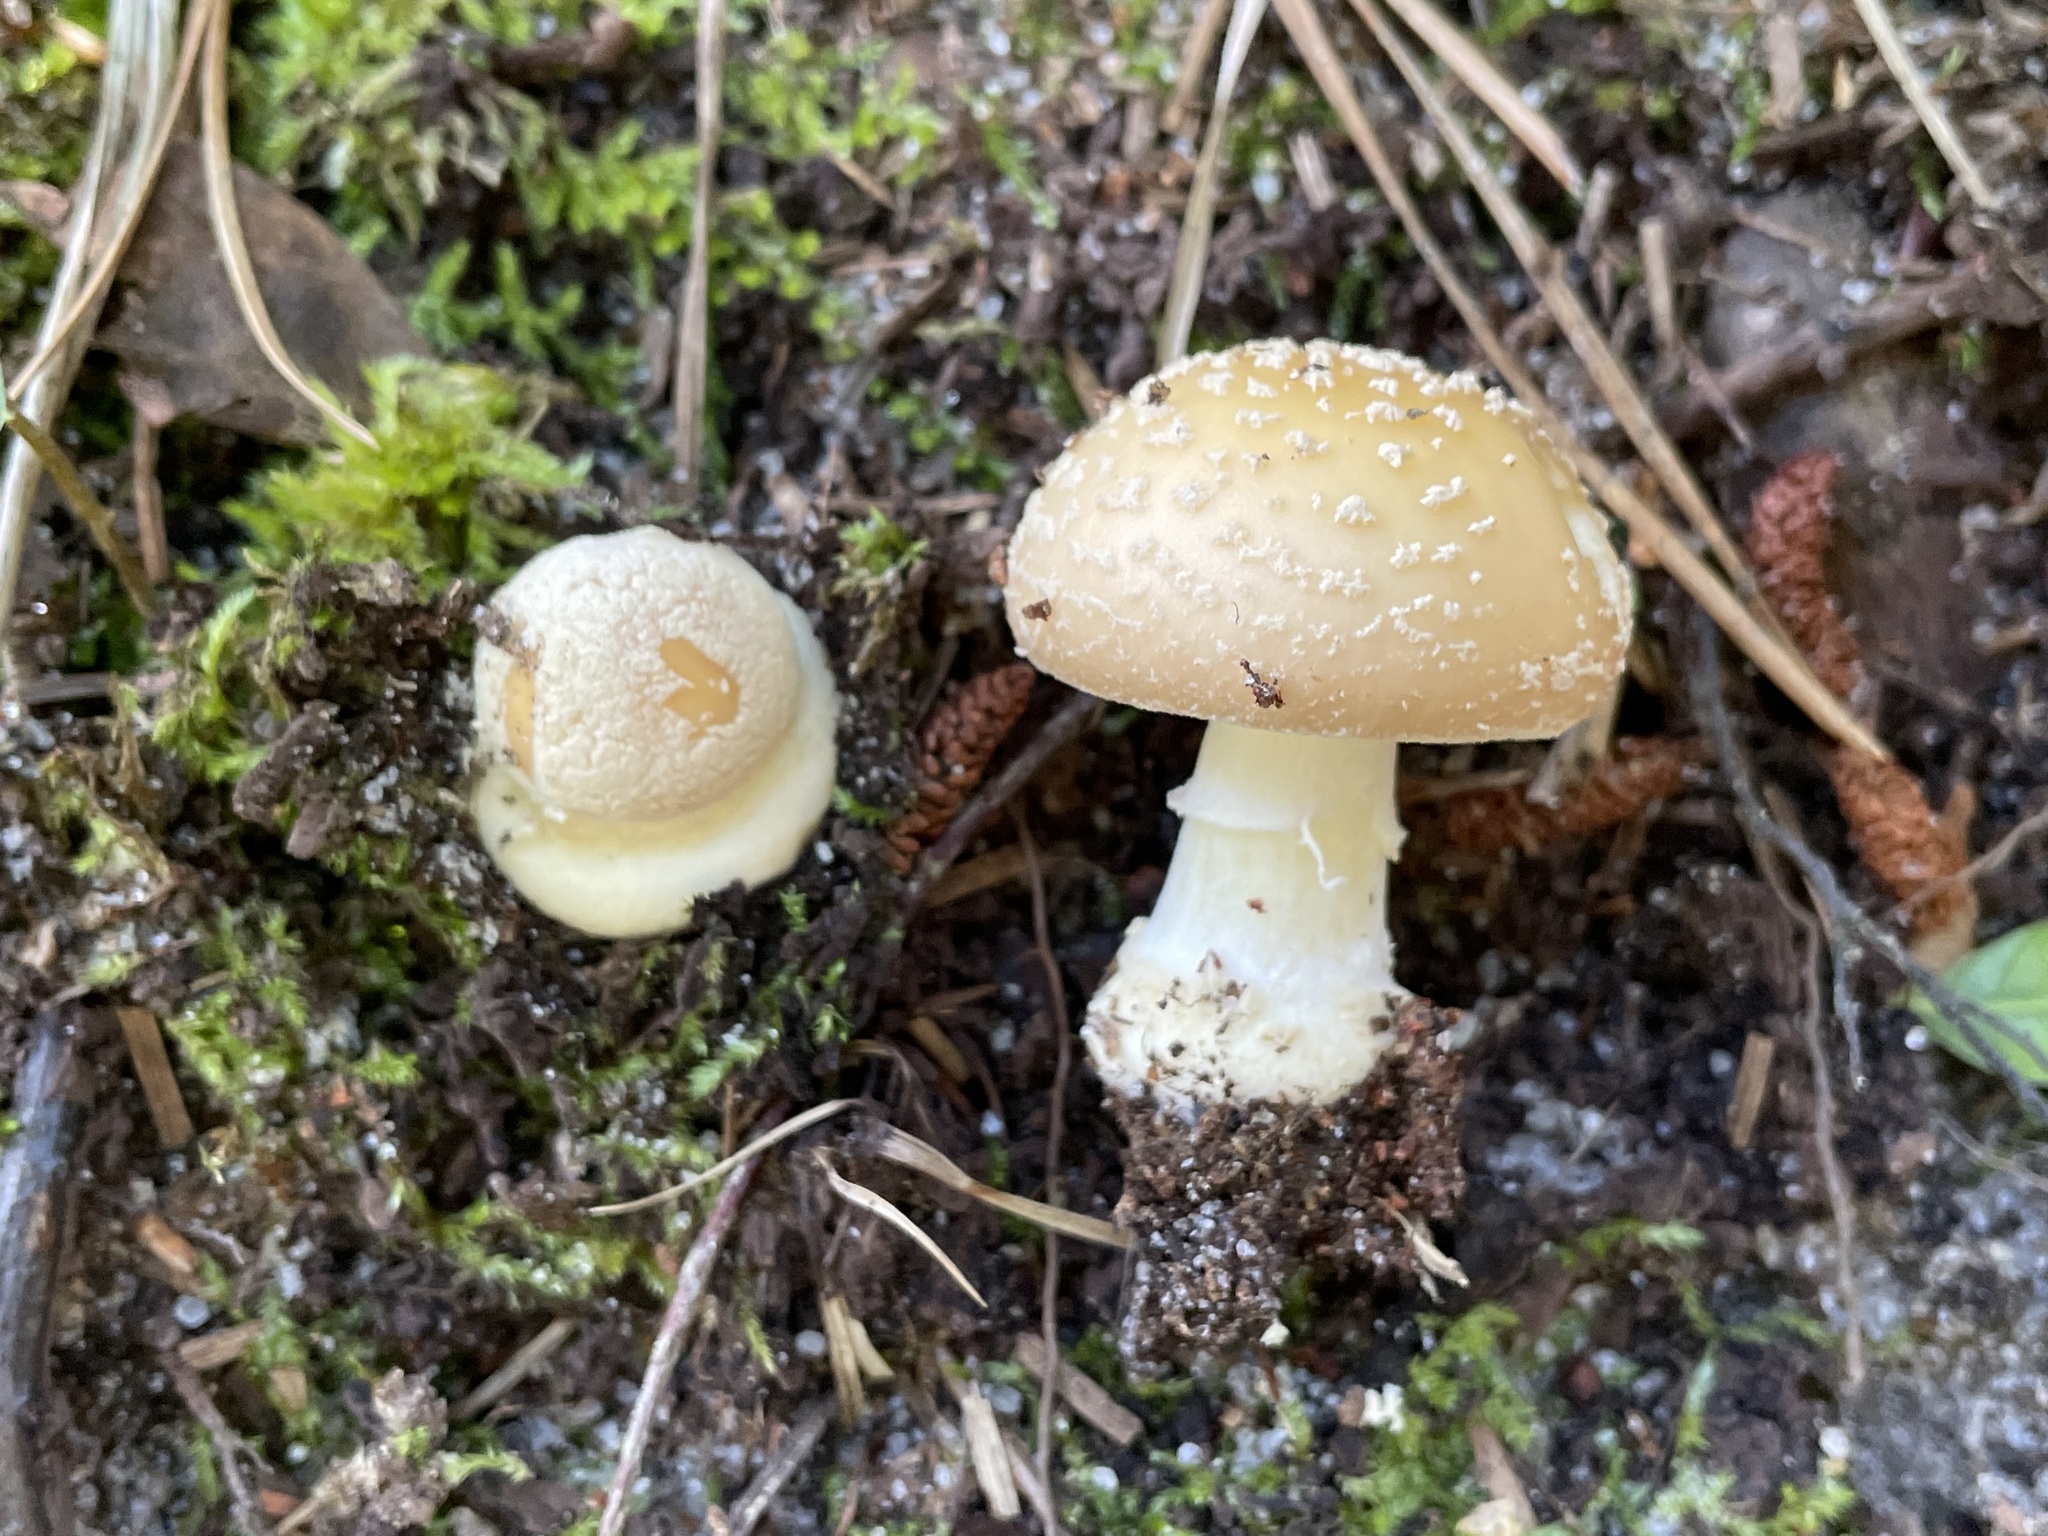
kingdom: Fungi
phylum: Basidiomycota
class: Agaricomycetes
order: Agaricales
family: Amanitaceae
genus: Amanita
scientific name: Amanita crenulata
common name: Poison champagne amanita
